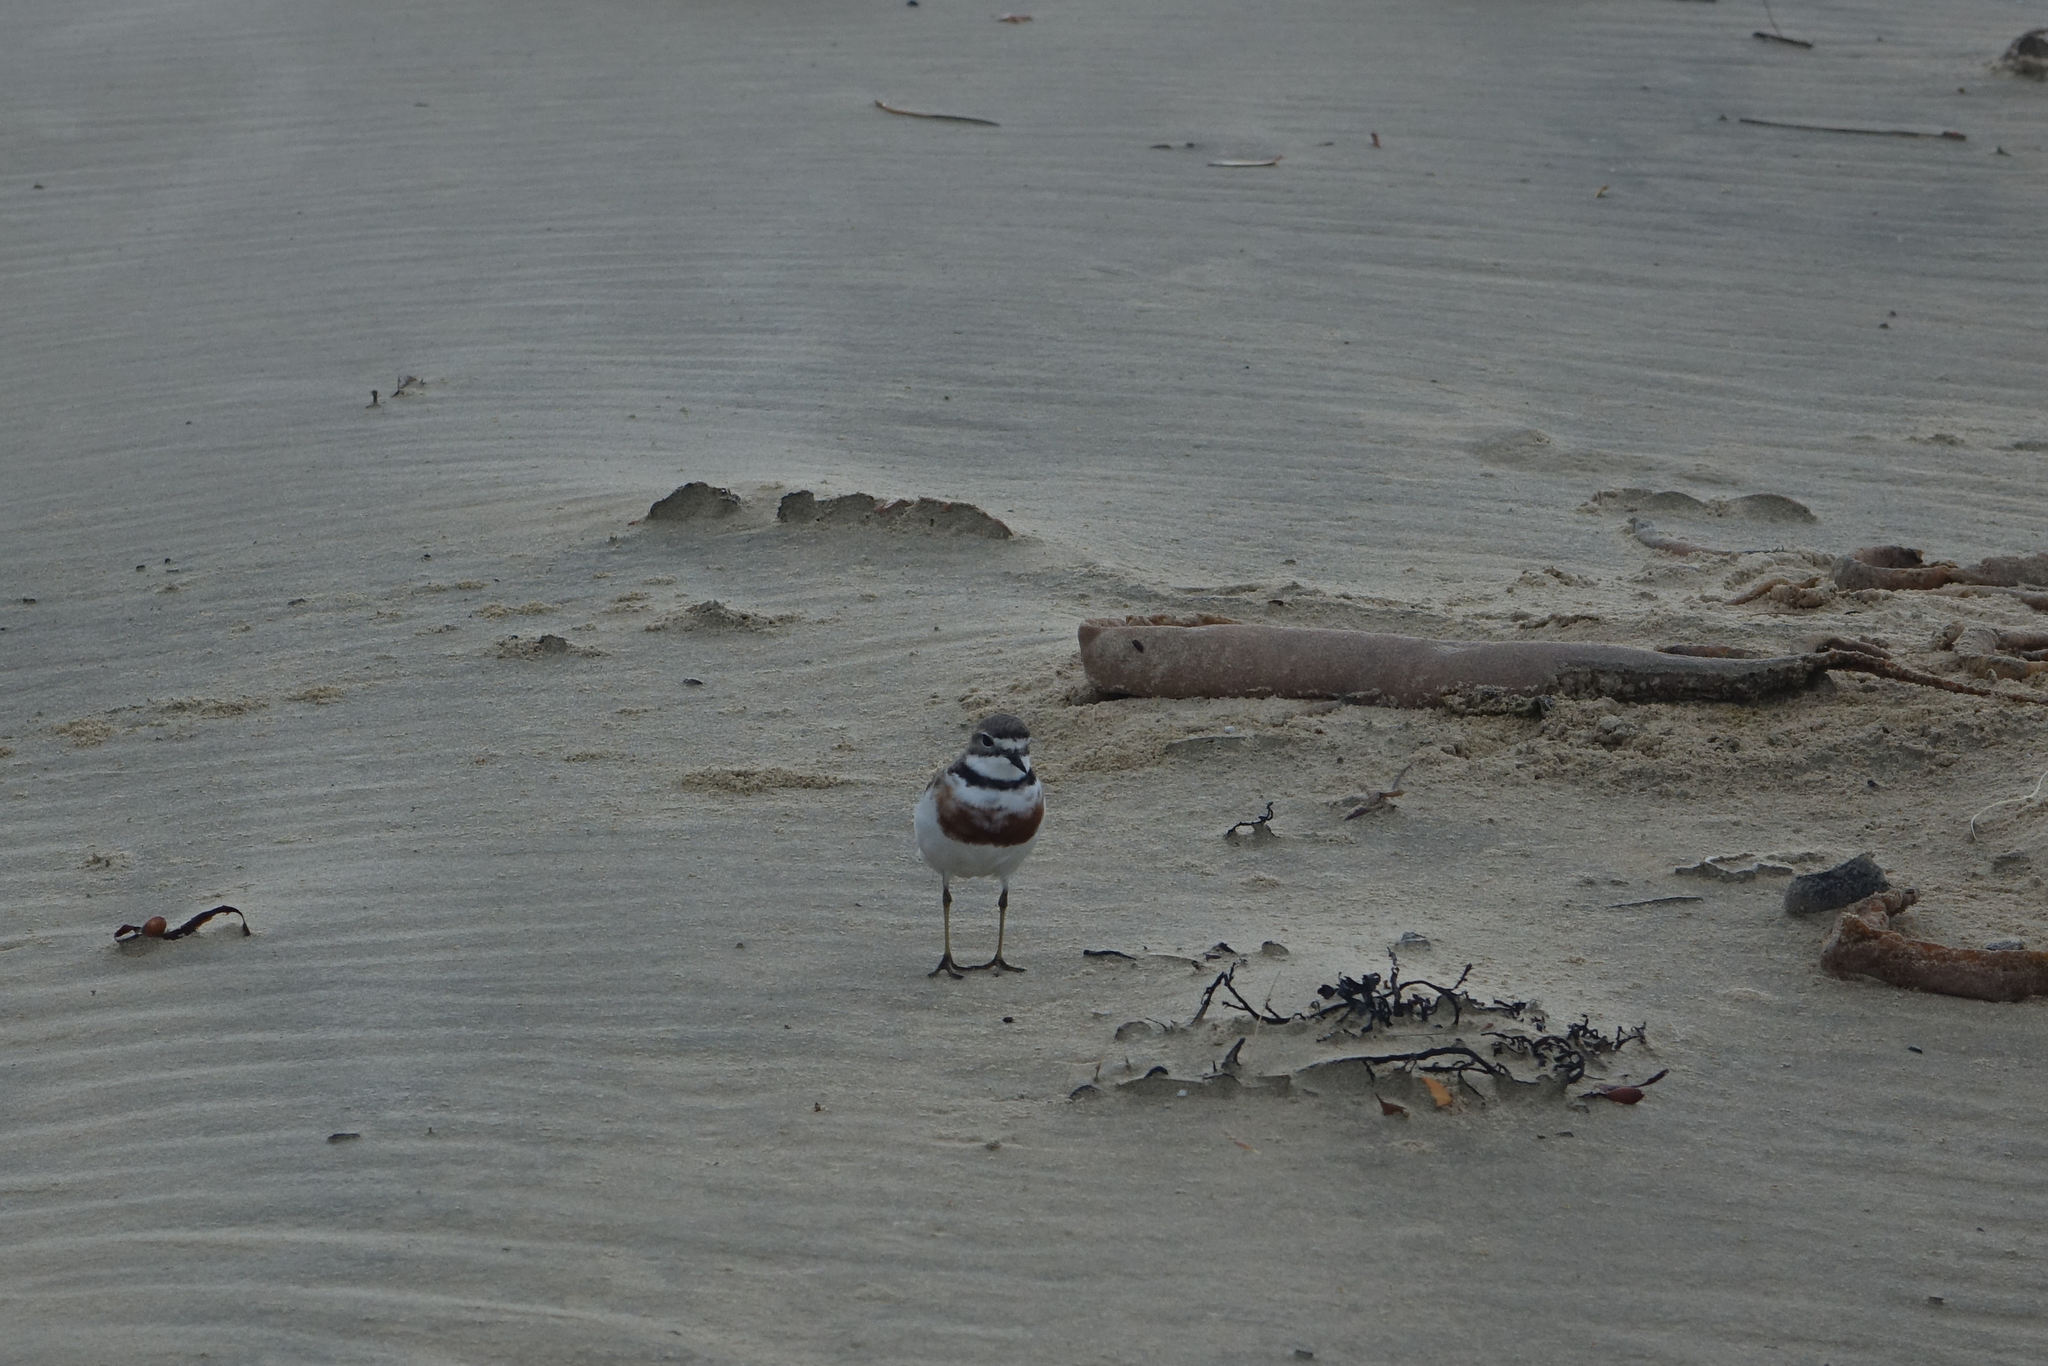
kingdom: Animalia
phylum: Chordata
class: Aves
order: Charadriiformes
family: Charadriidae
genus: Anarhynchus
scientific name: Anarhynchus
